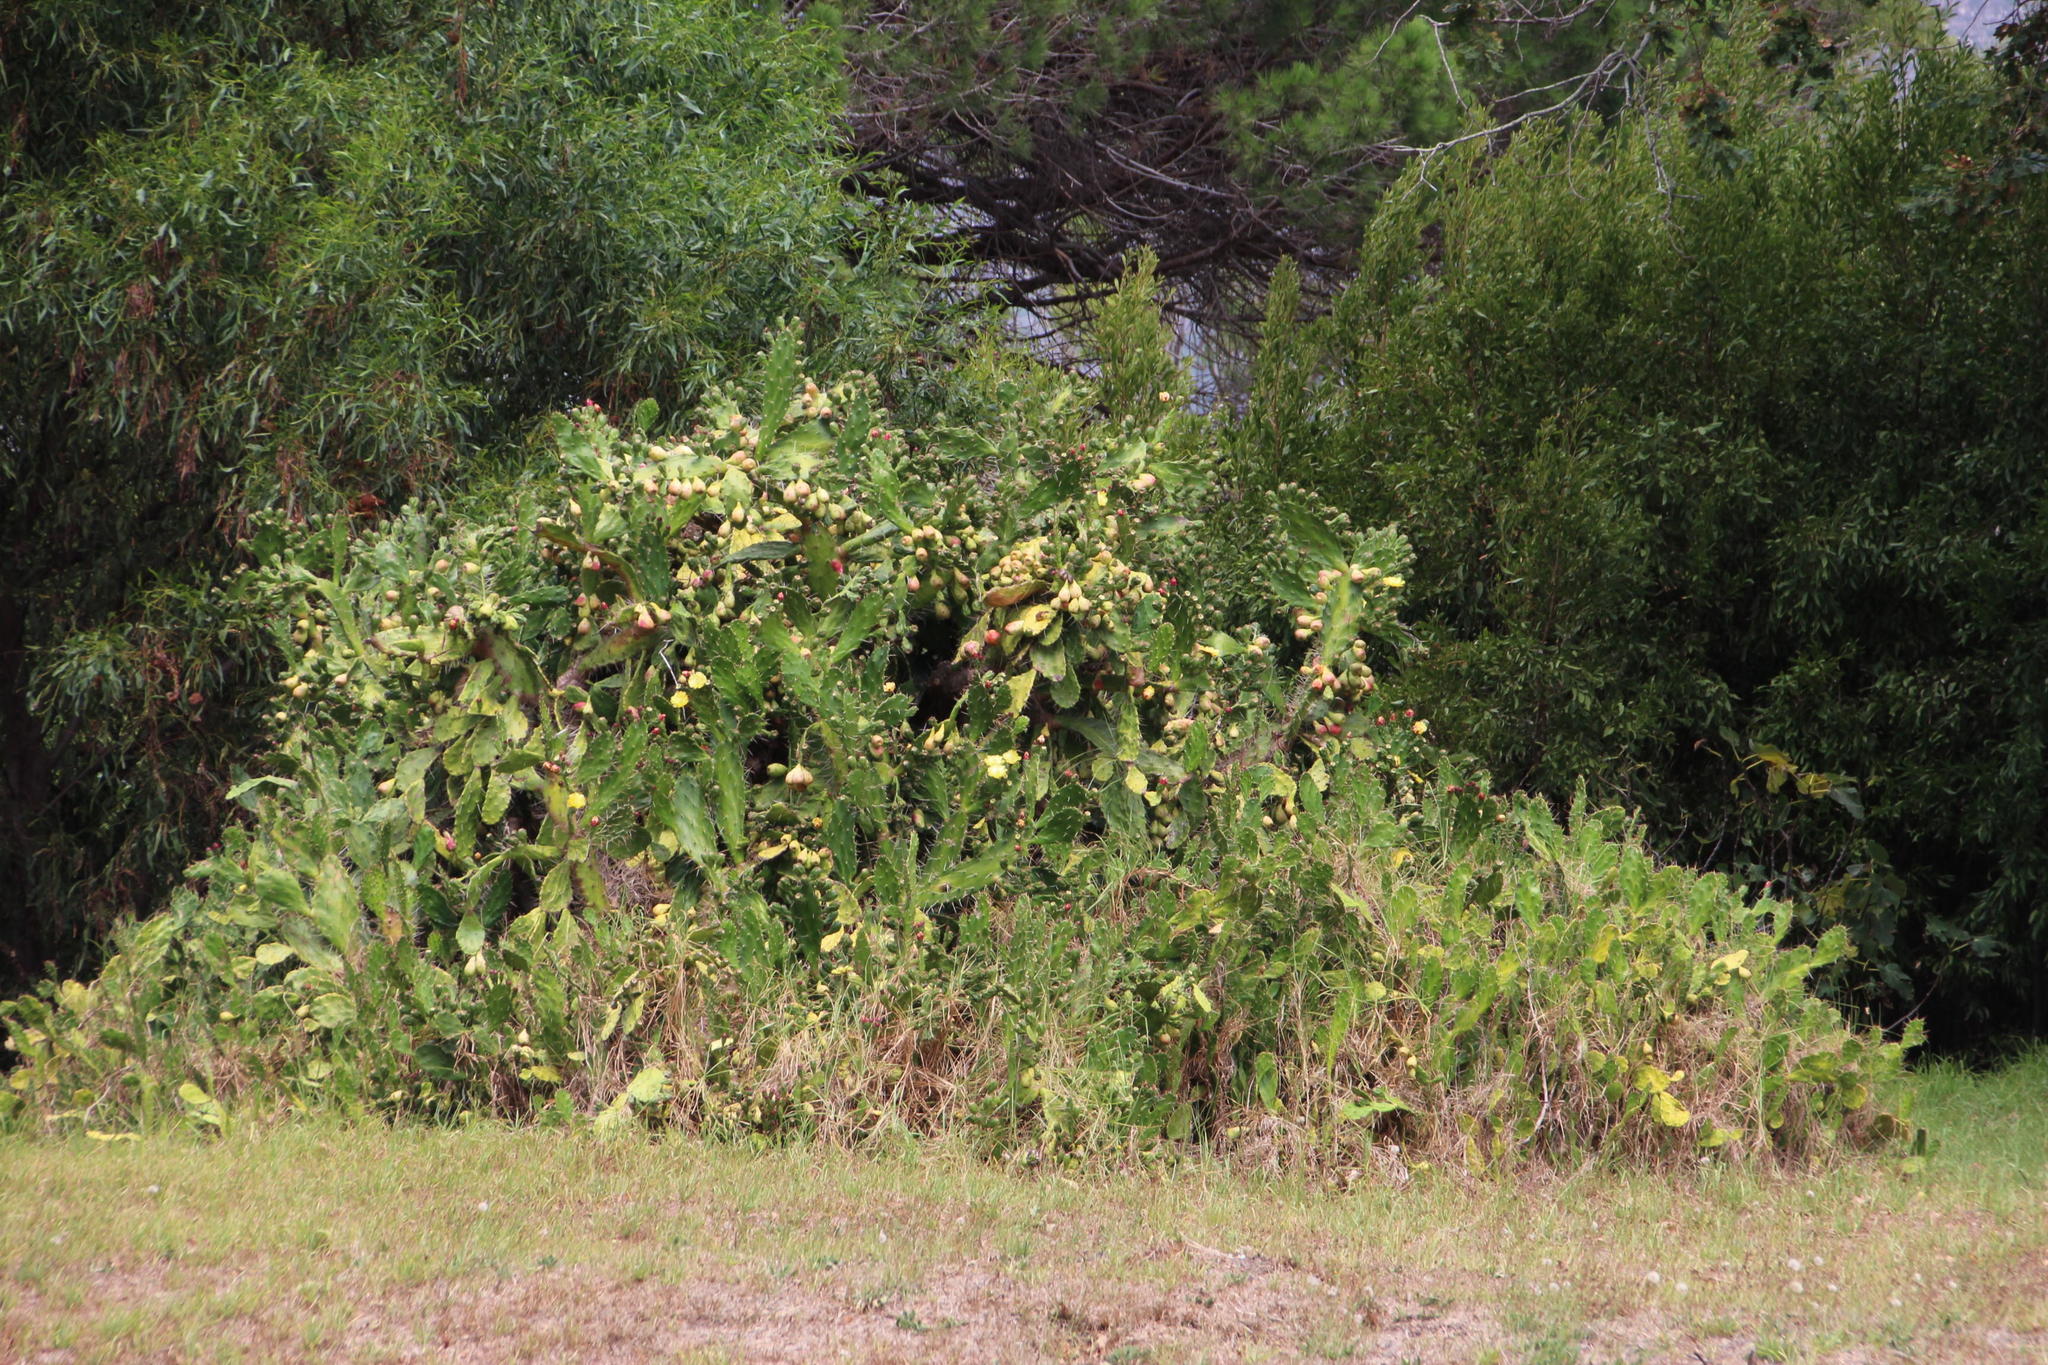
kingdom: Plantae
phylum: Tracheophyta
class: Magnoliopsida
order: Caryophyllales
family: Cactaceae
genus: Opuntia
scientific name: Opuntia monacantha
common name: Common pricklypear
